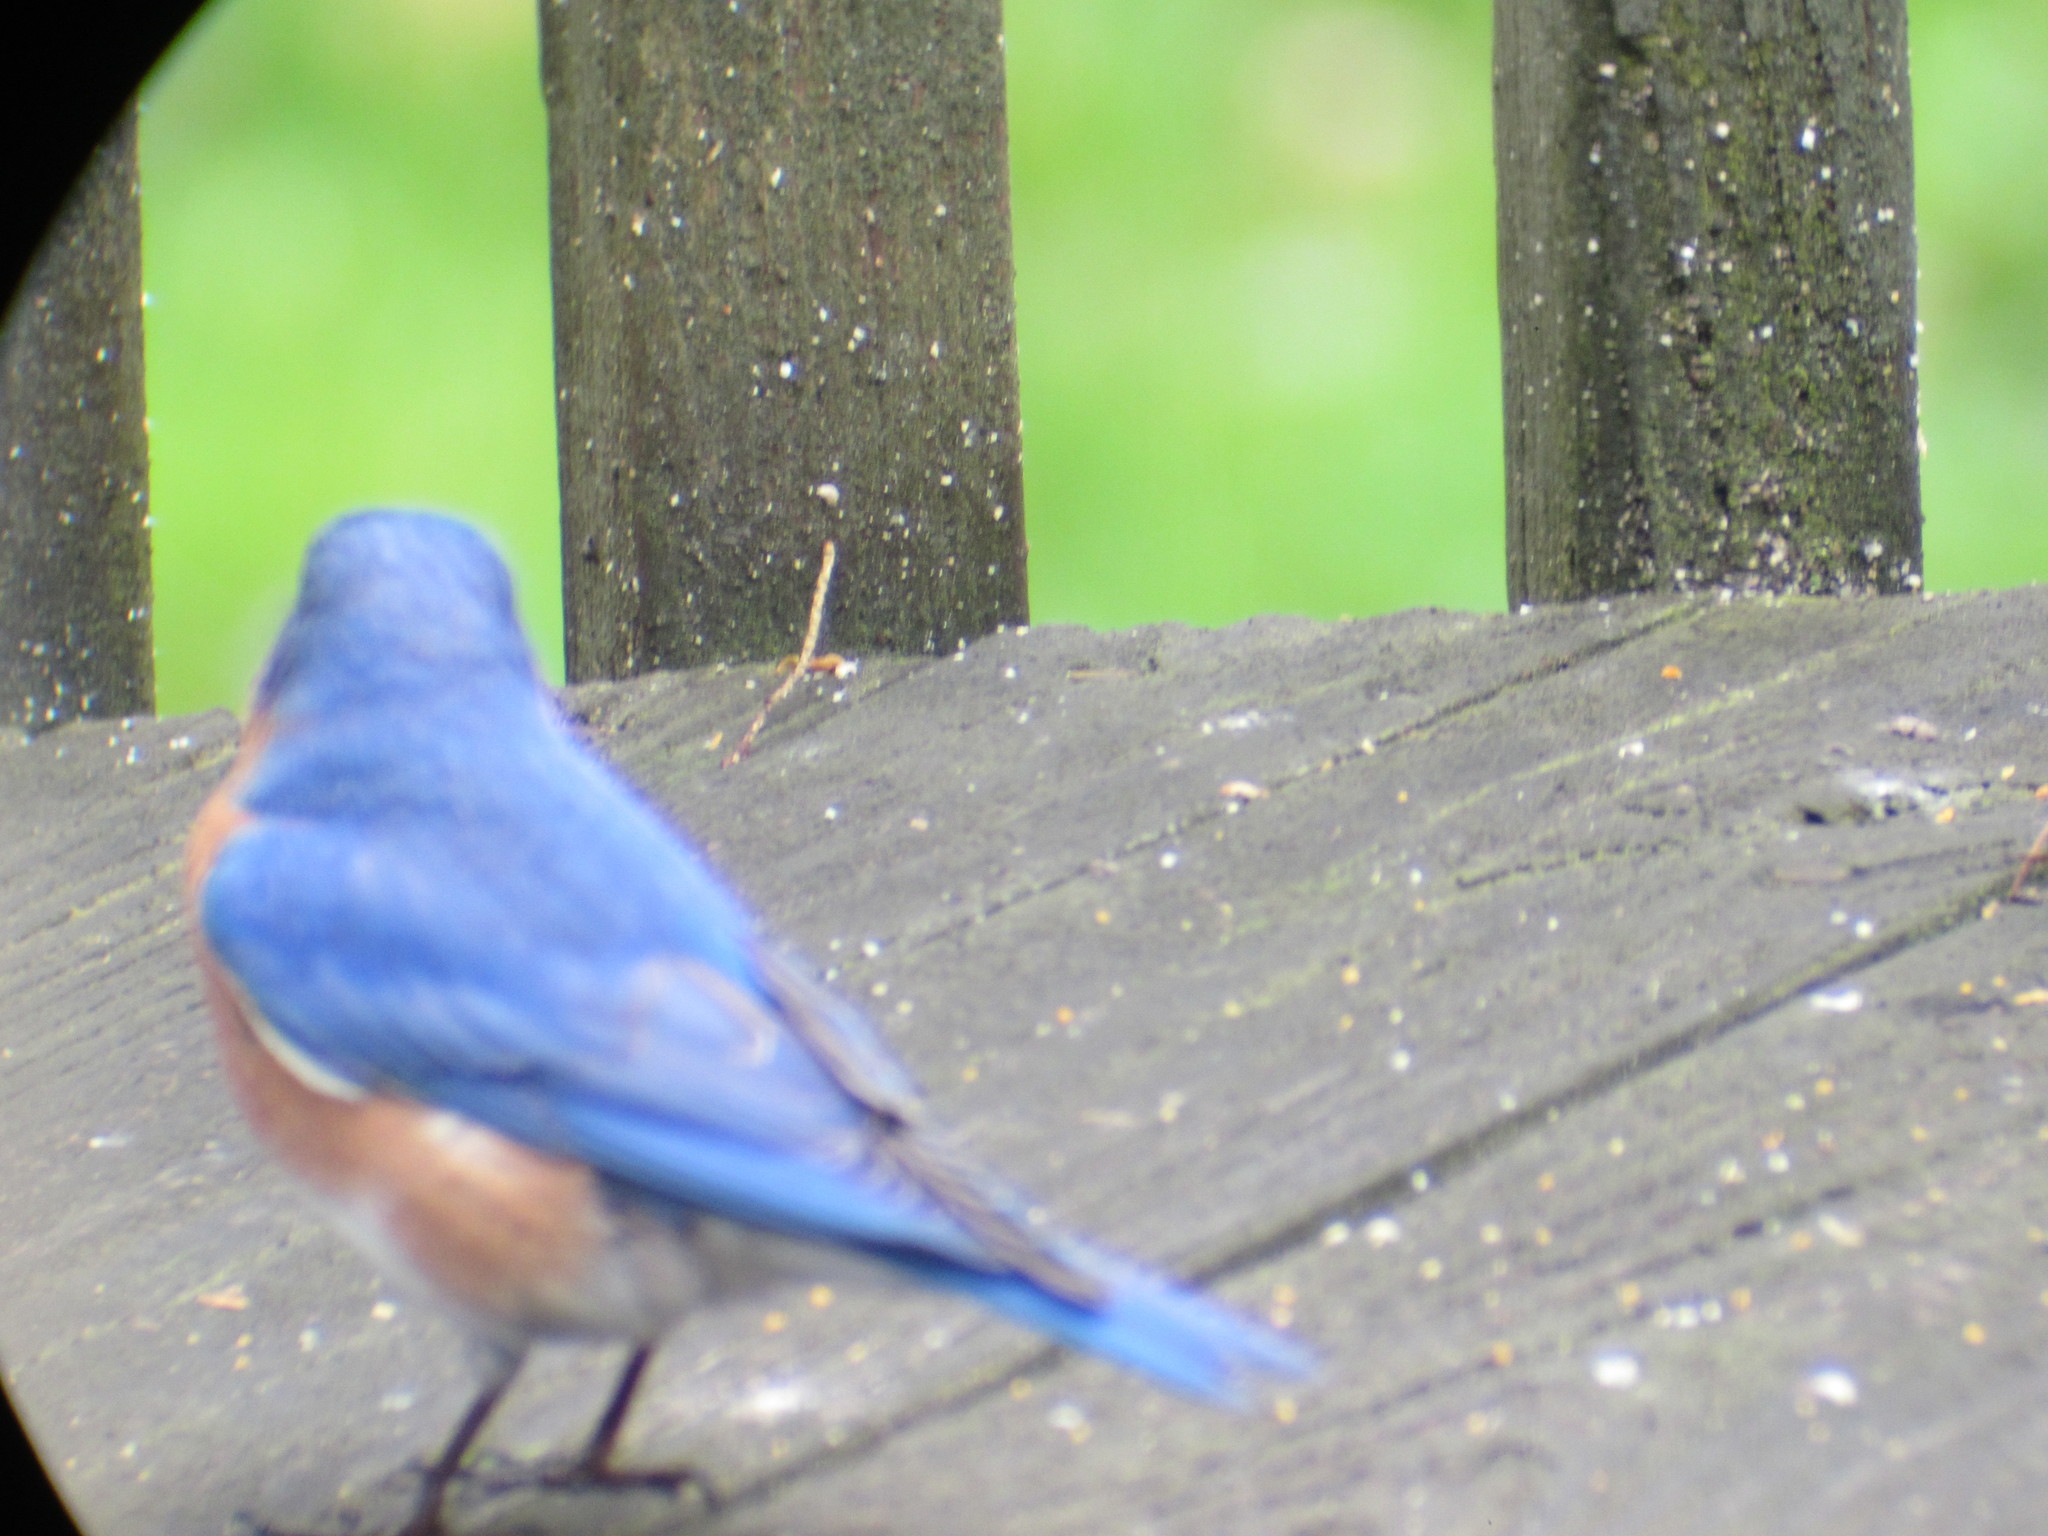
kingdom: Animalia
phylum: Chordata
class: Aves
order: Passeriformes
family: Turdidae
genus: Sialia
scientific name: Sialia sialis
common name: Eastern bluebird
